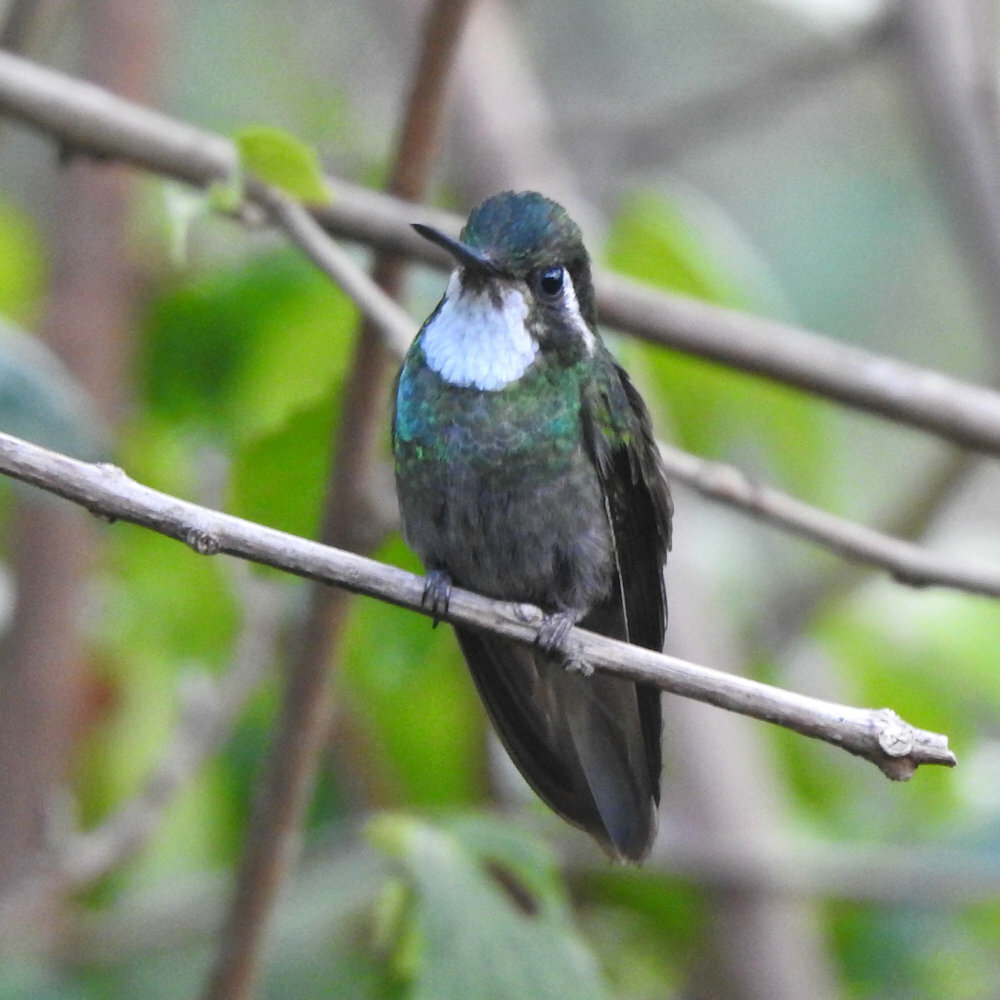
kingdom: Animalia
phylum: Chordata
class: Aves
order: Apodiformes
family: Trochilidae
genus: Lampornis
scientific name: Lampornis castaneoventris
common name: White-throated mountain-gem
